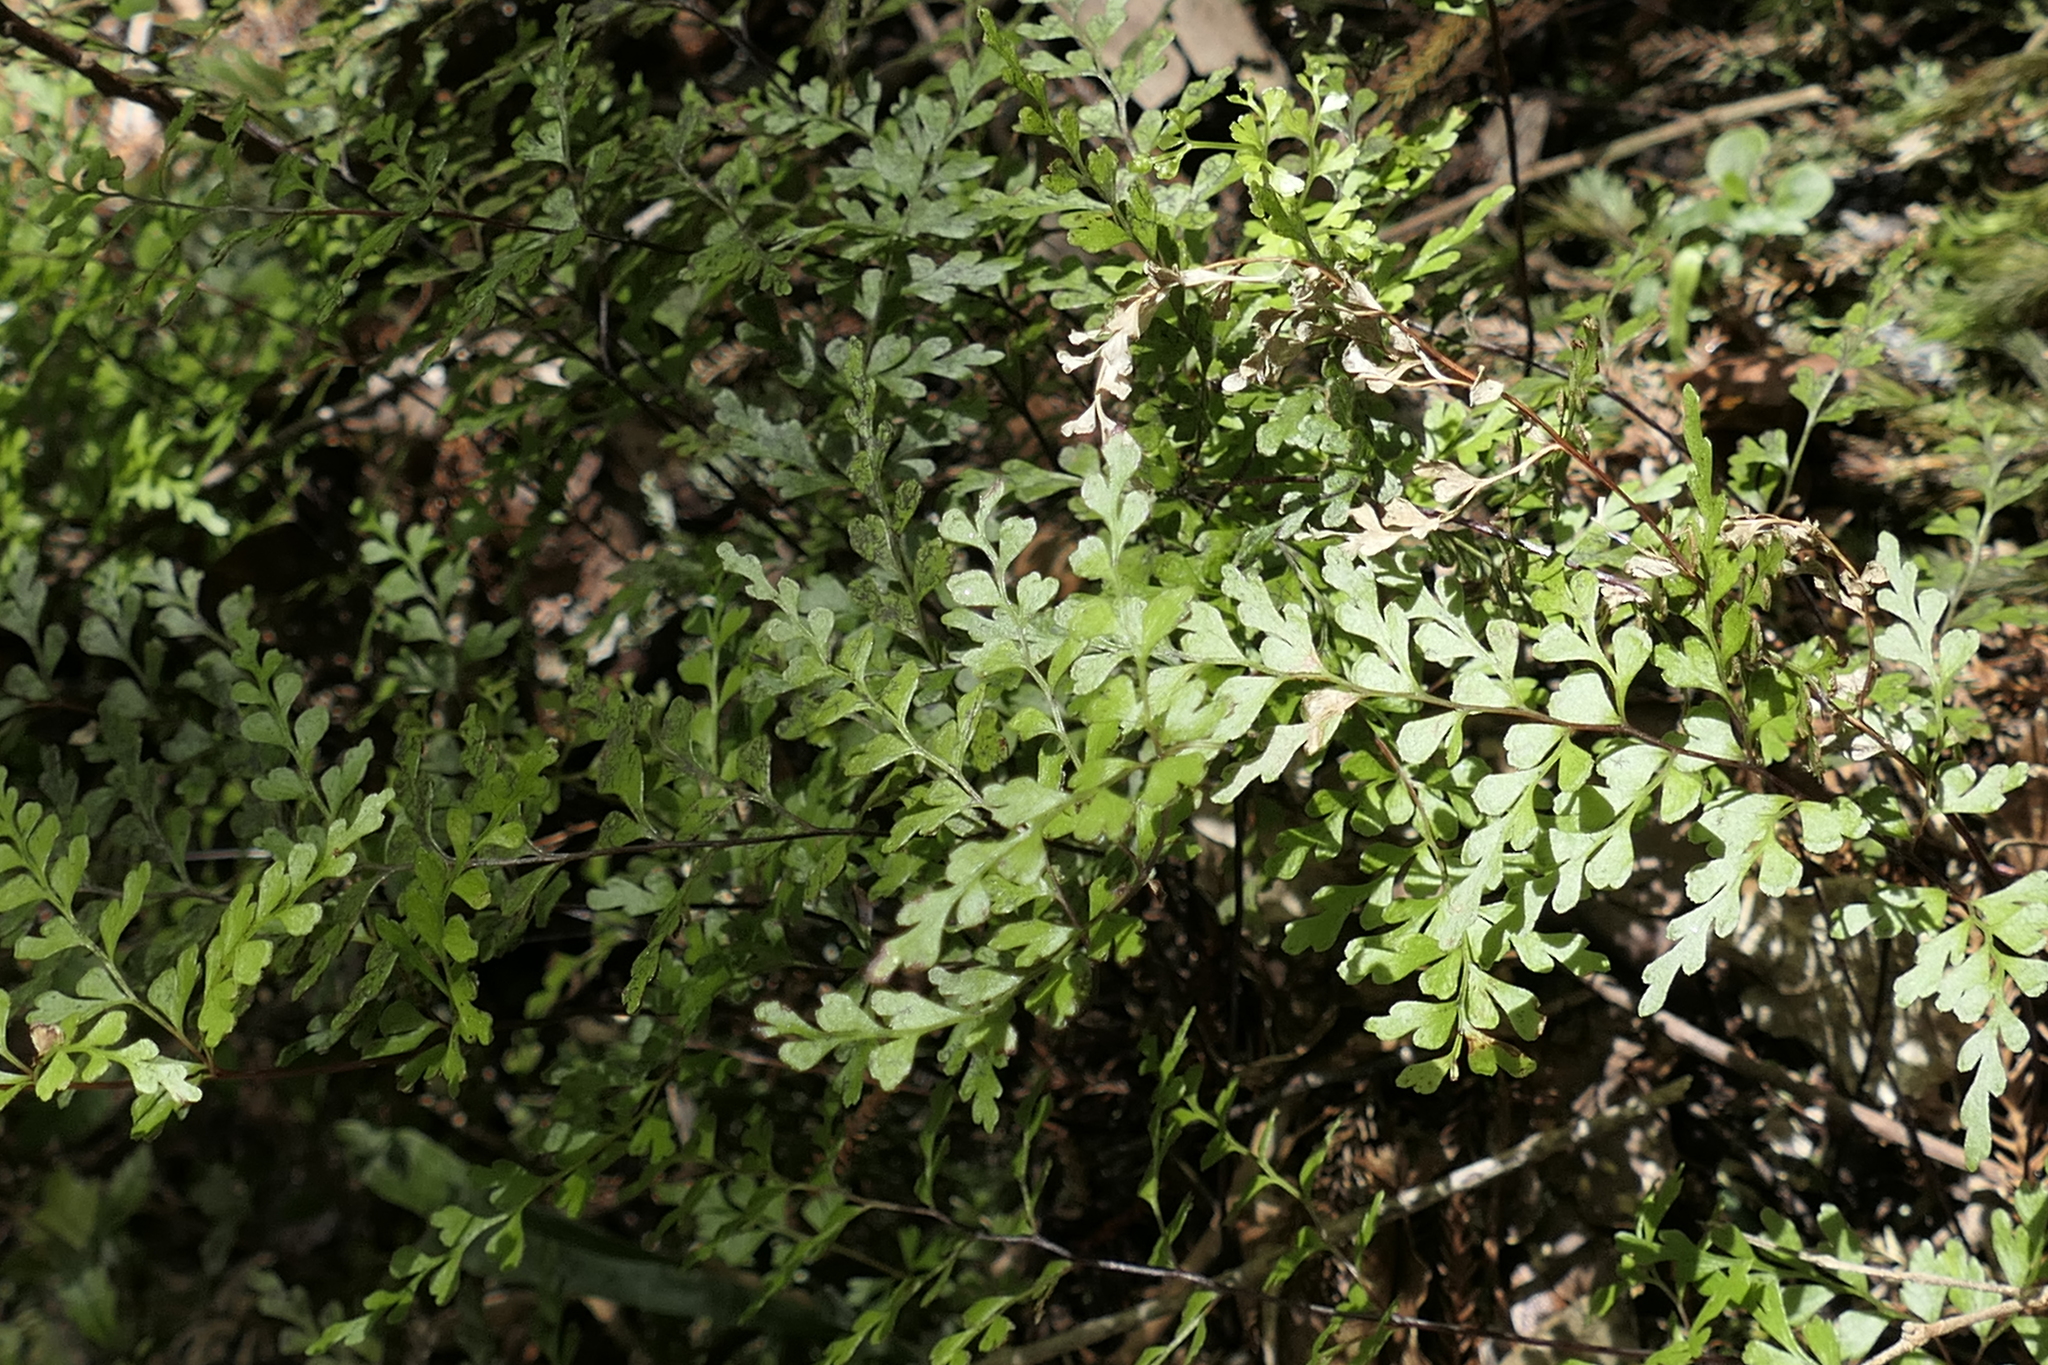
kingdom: Plantae
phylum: Tracheophyta
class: Polypodiopsida
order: Polypodiales
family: Lindsaeaceae
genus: Lindsaea
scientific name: Lindsaea trichomanoides
